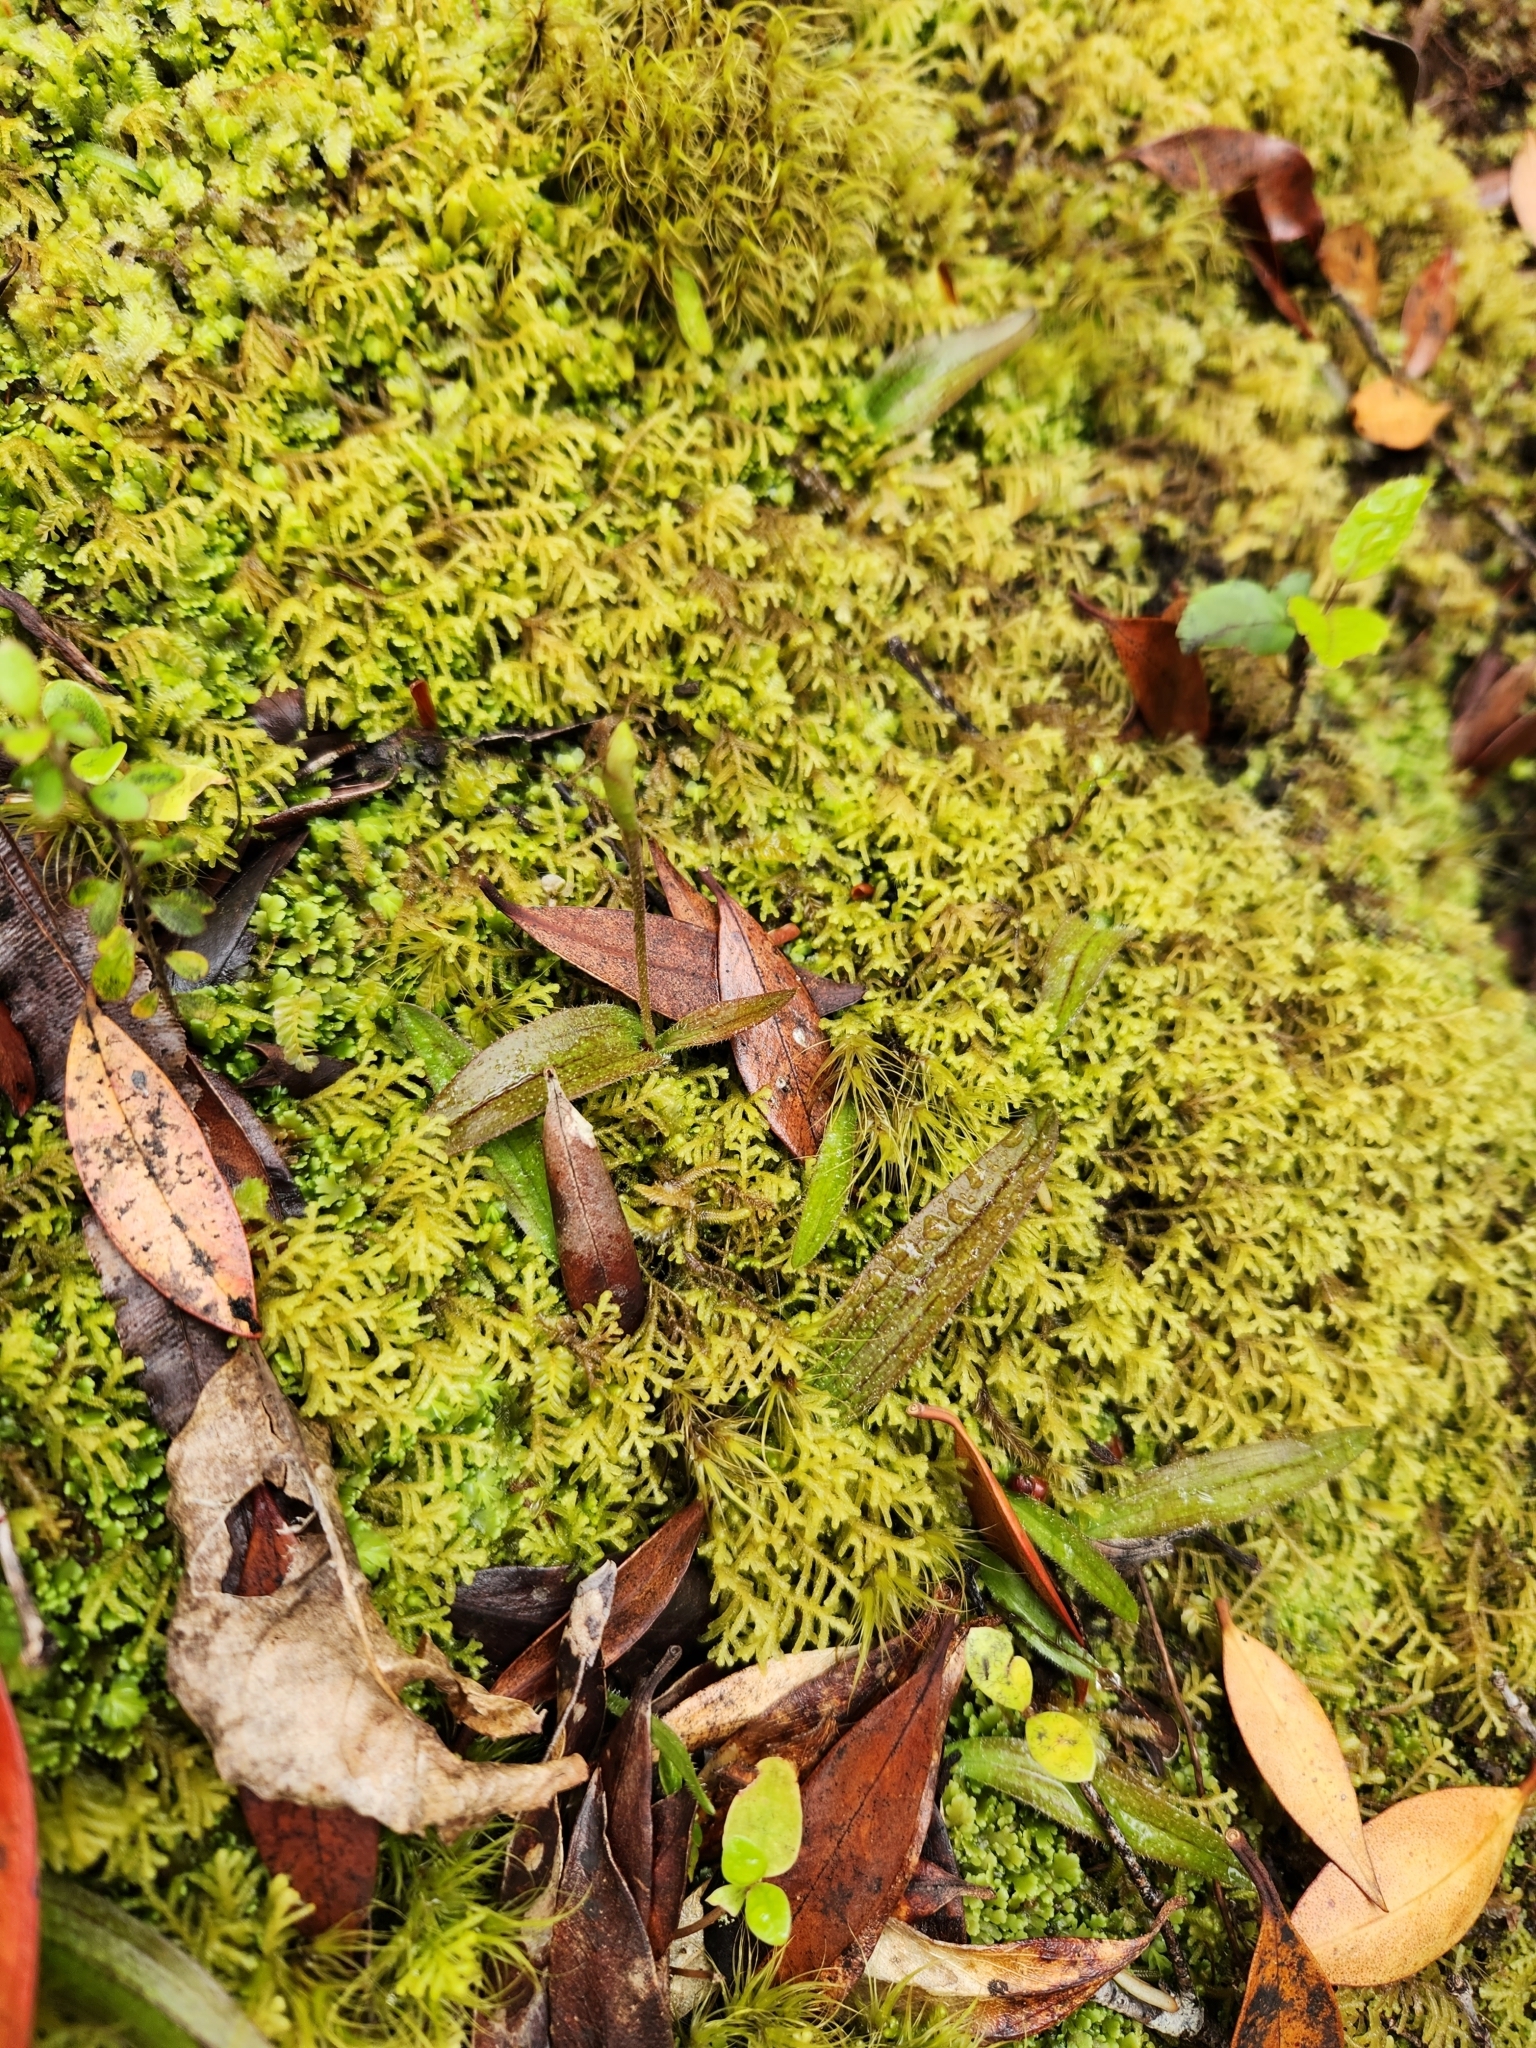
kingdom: Plantae
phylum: Tracheophyta
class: Liliopsida
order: Asparagales
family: Orchidaceae
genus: Aporostylis
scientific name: Aporostylis bifolia
